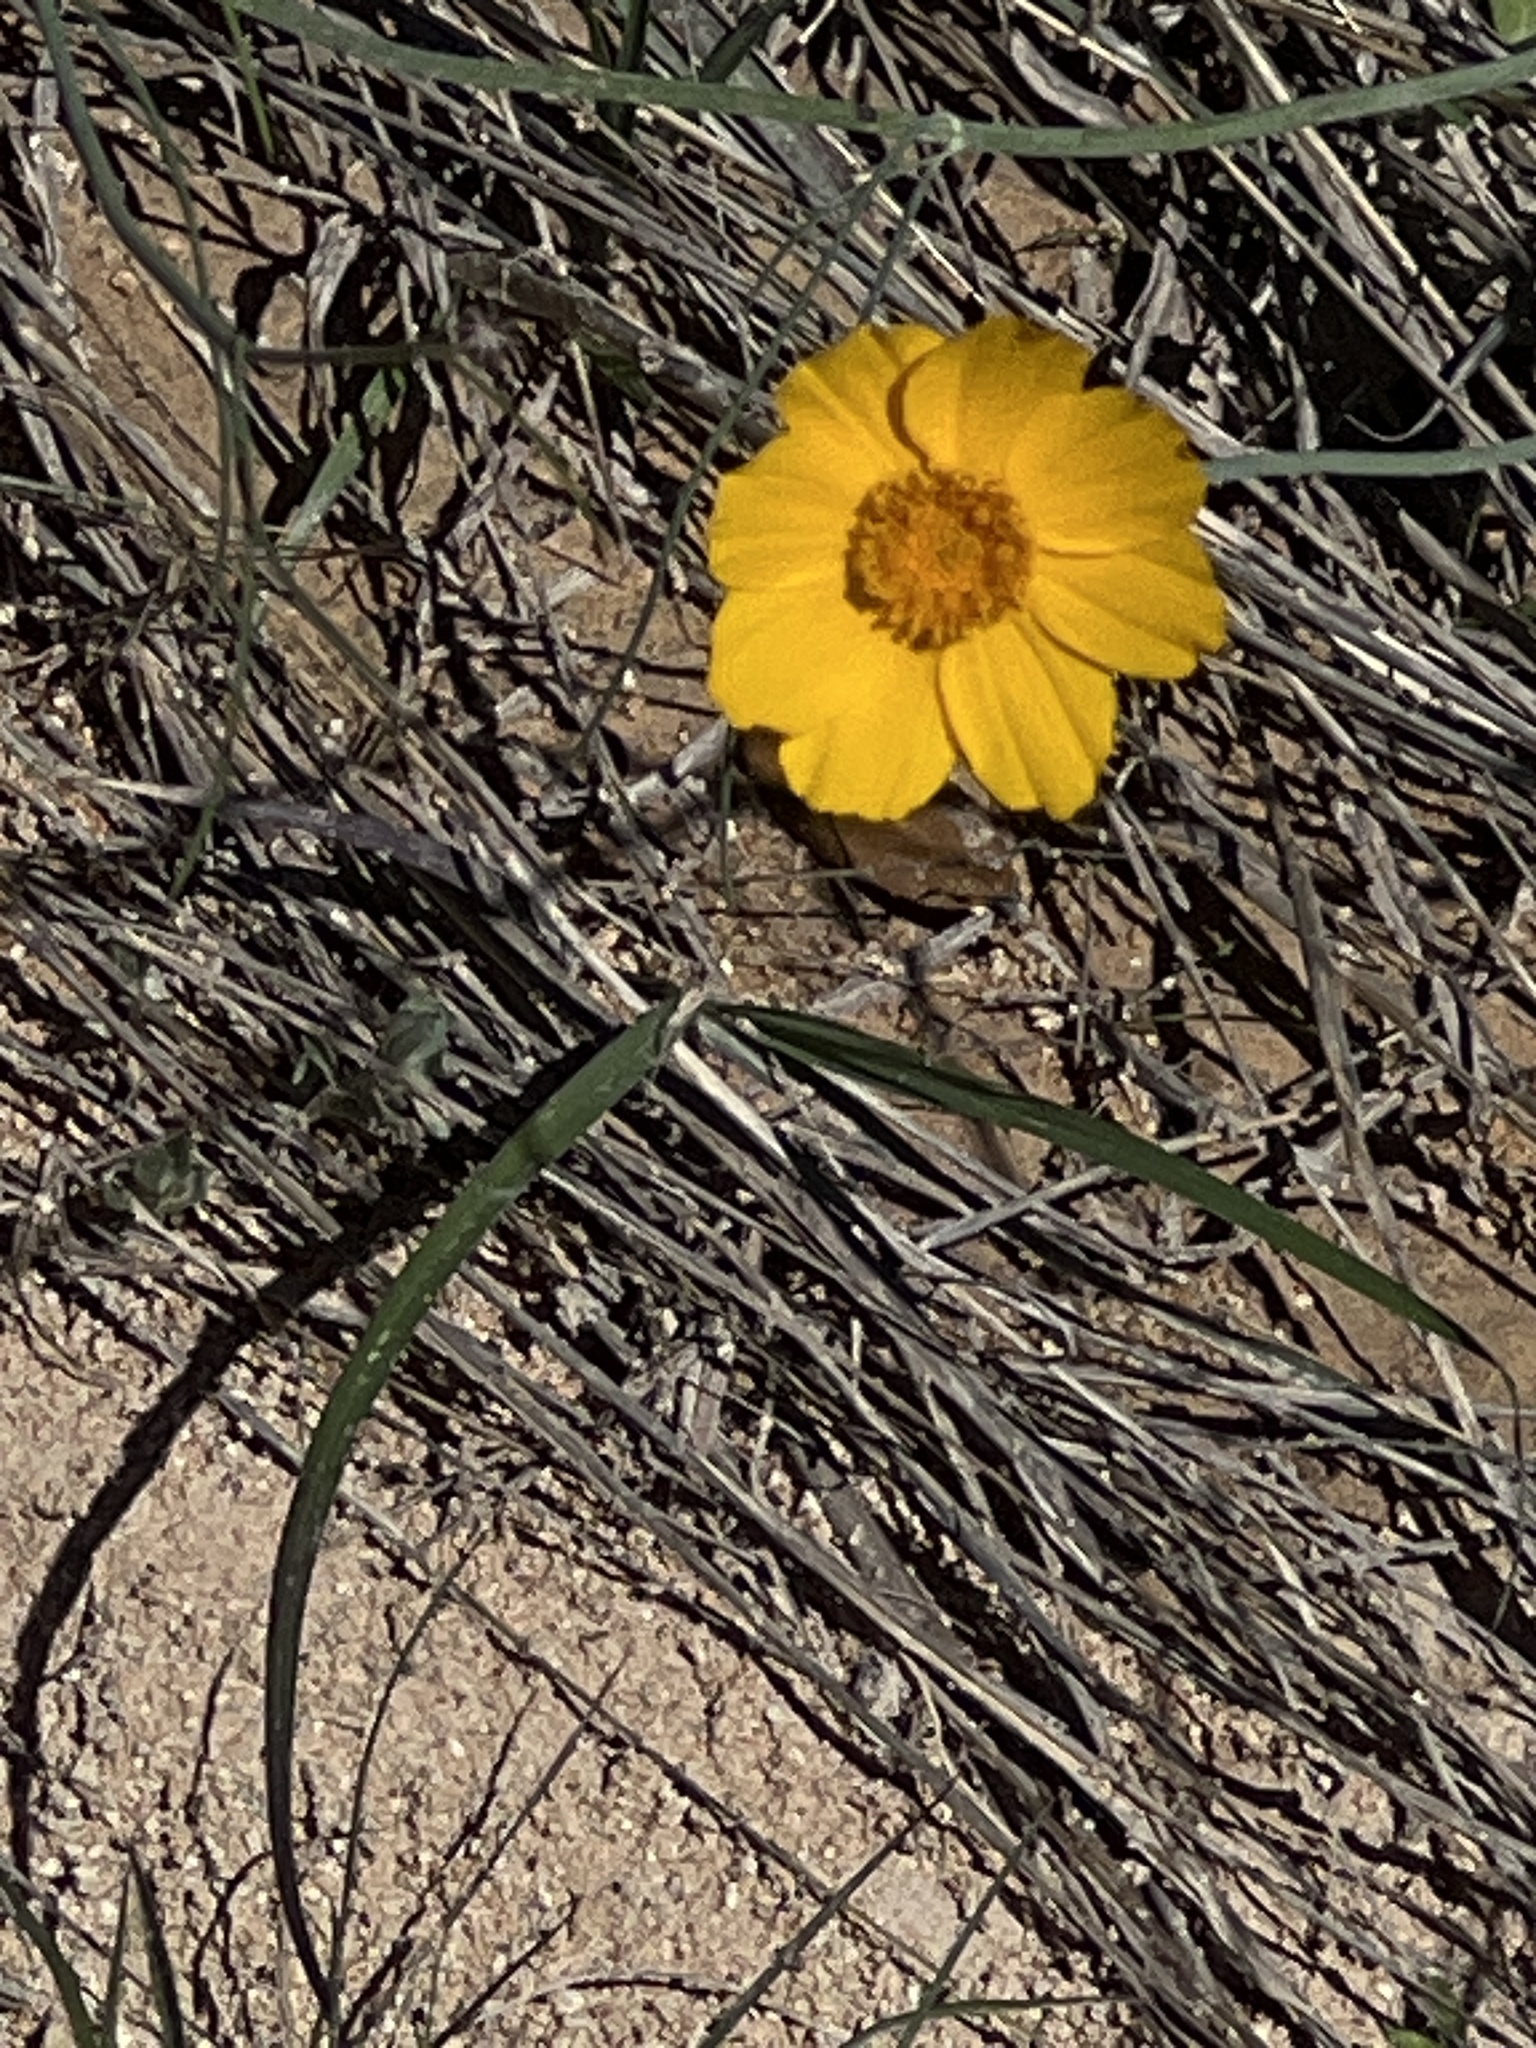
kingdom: Plantae
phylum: Tracheophyta
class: Magnoliopsida
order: Asterales
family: Asteraceae
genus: Thelesperma
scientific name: Thelesperma simplicifolium
